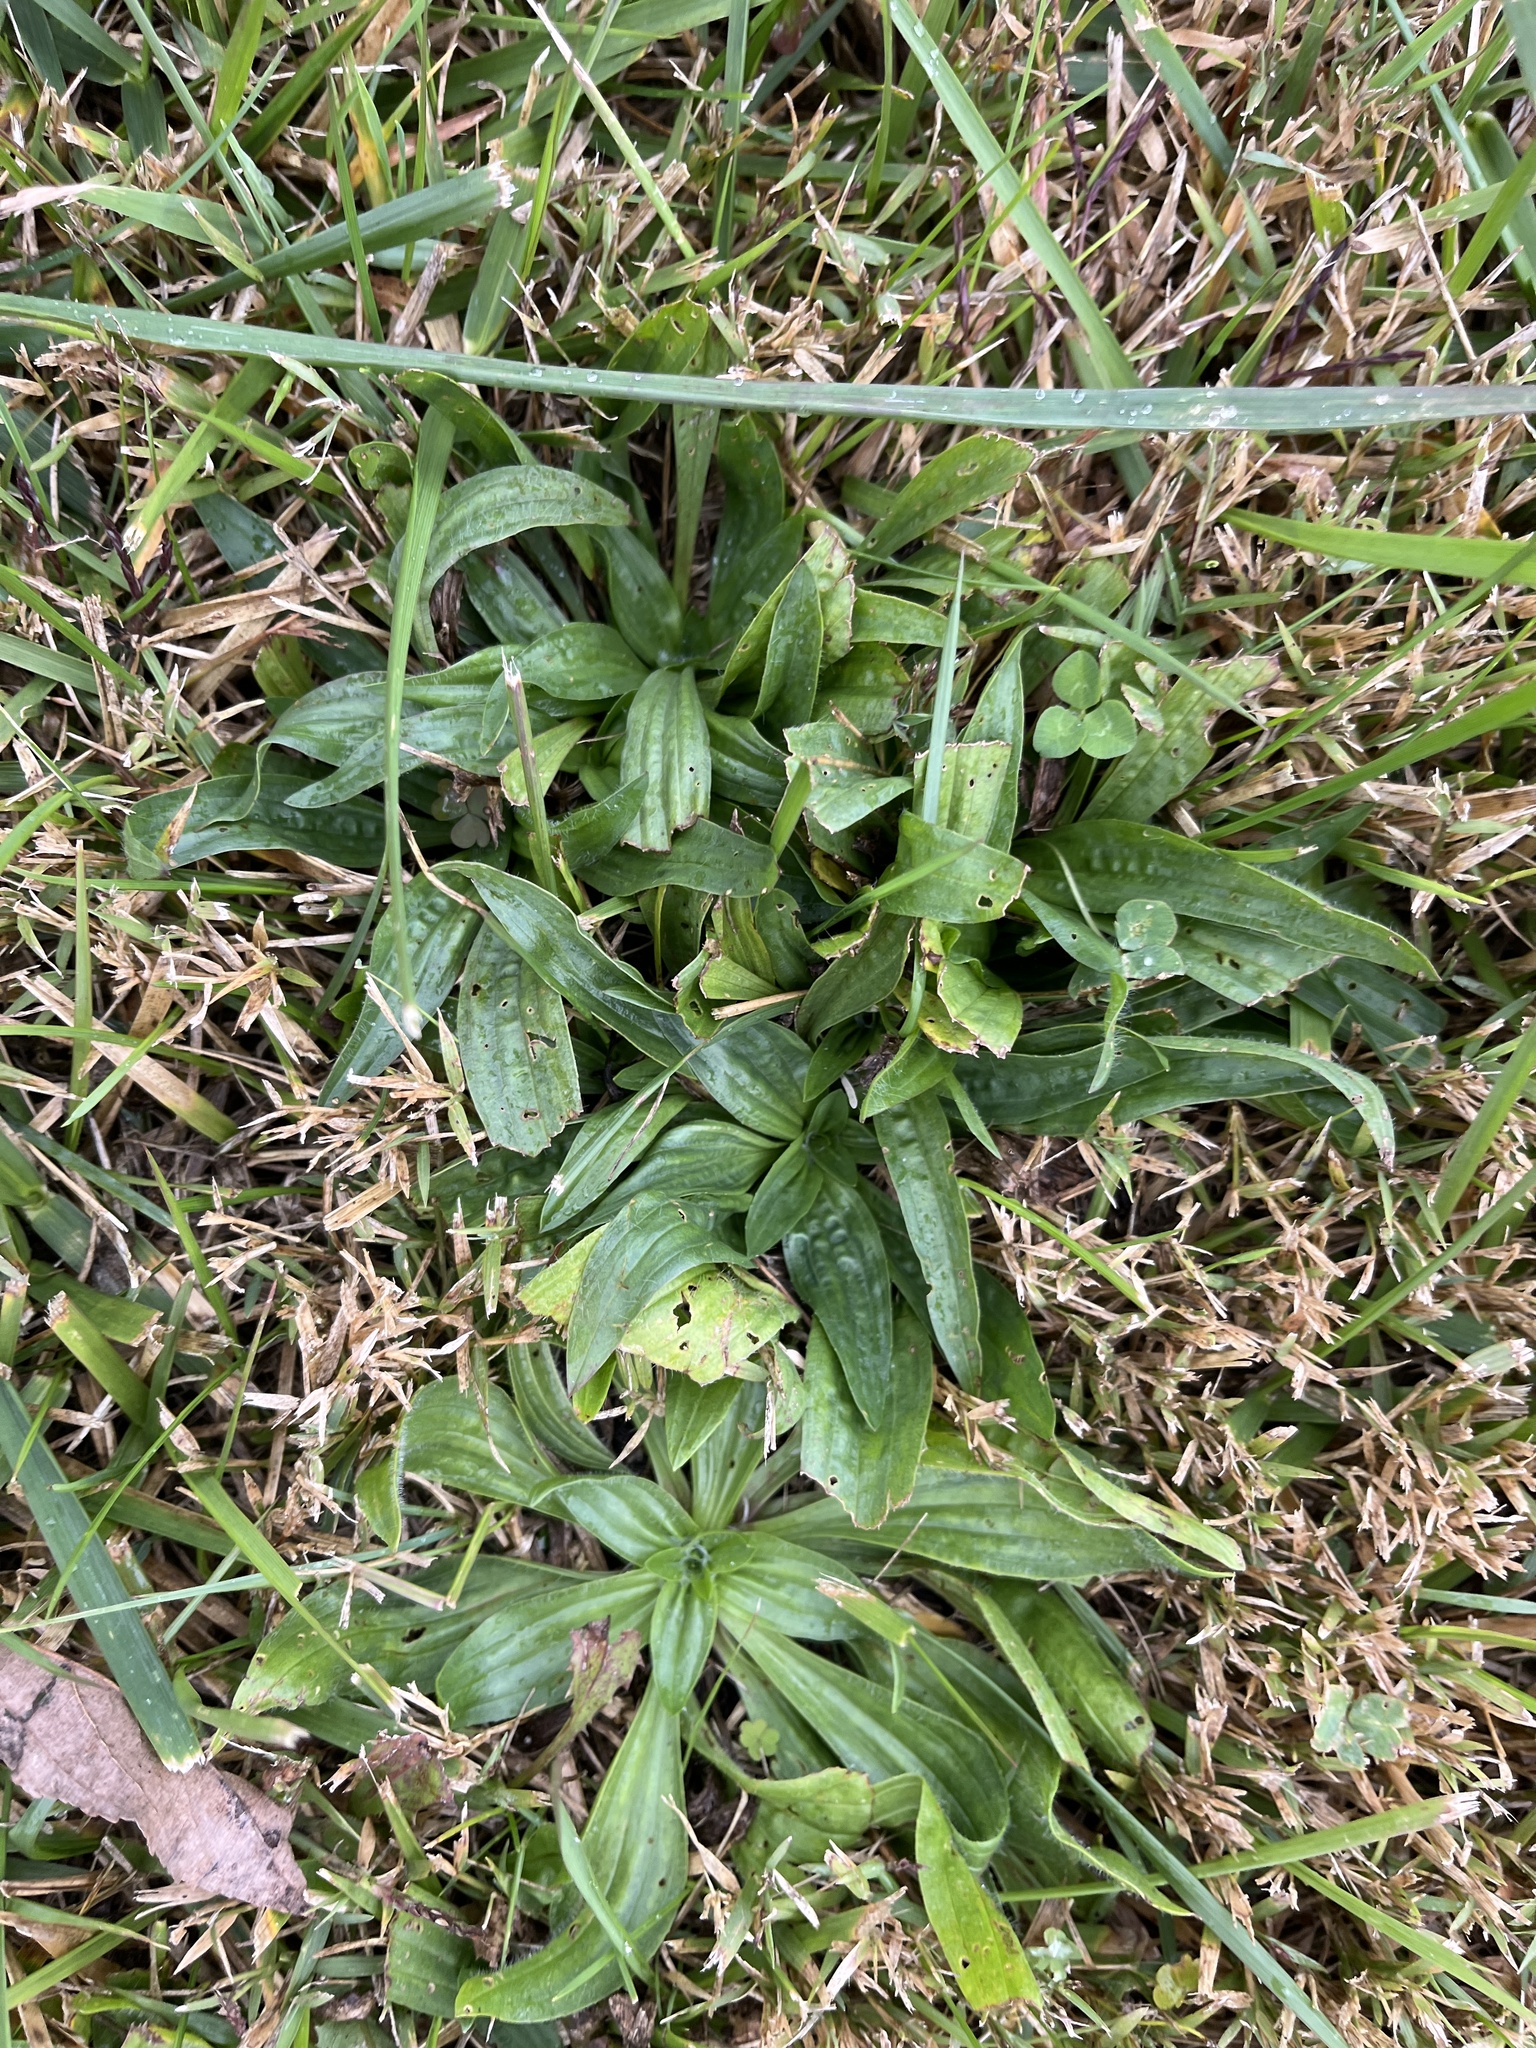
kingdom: Plantae
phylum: Tracheophyta
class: Magnoliopsida
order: Lamiales
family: Plantaginaceae
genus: Plantago
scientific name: Plantago lanceolata
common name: Ribwort plantain
